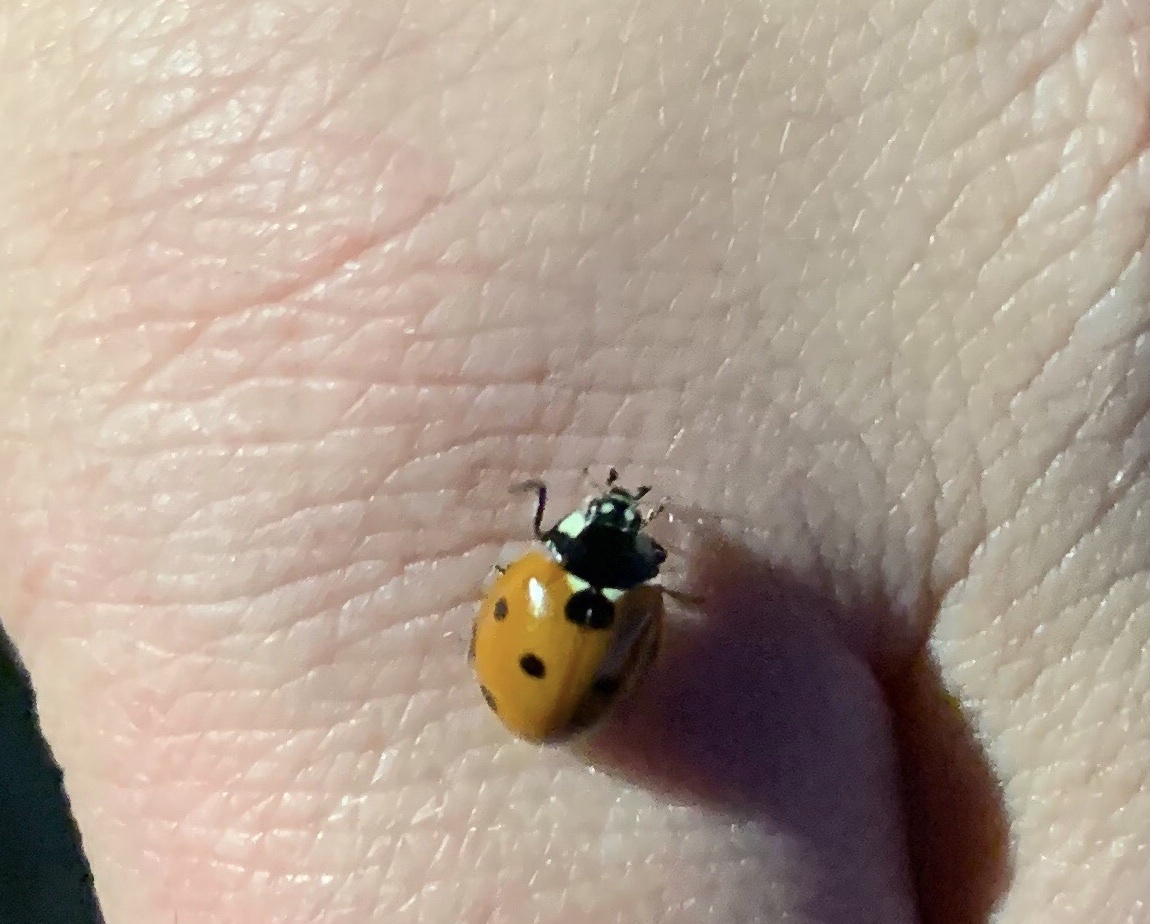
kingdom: Animalia
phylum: Arthropoda
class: Insecta
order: Coleoptera
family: Coccinellidae
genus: Coccinella
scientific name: Coccinella septempunctata
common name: Sevenspotted lady beetle
